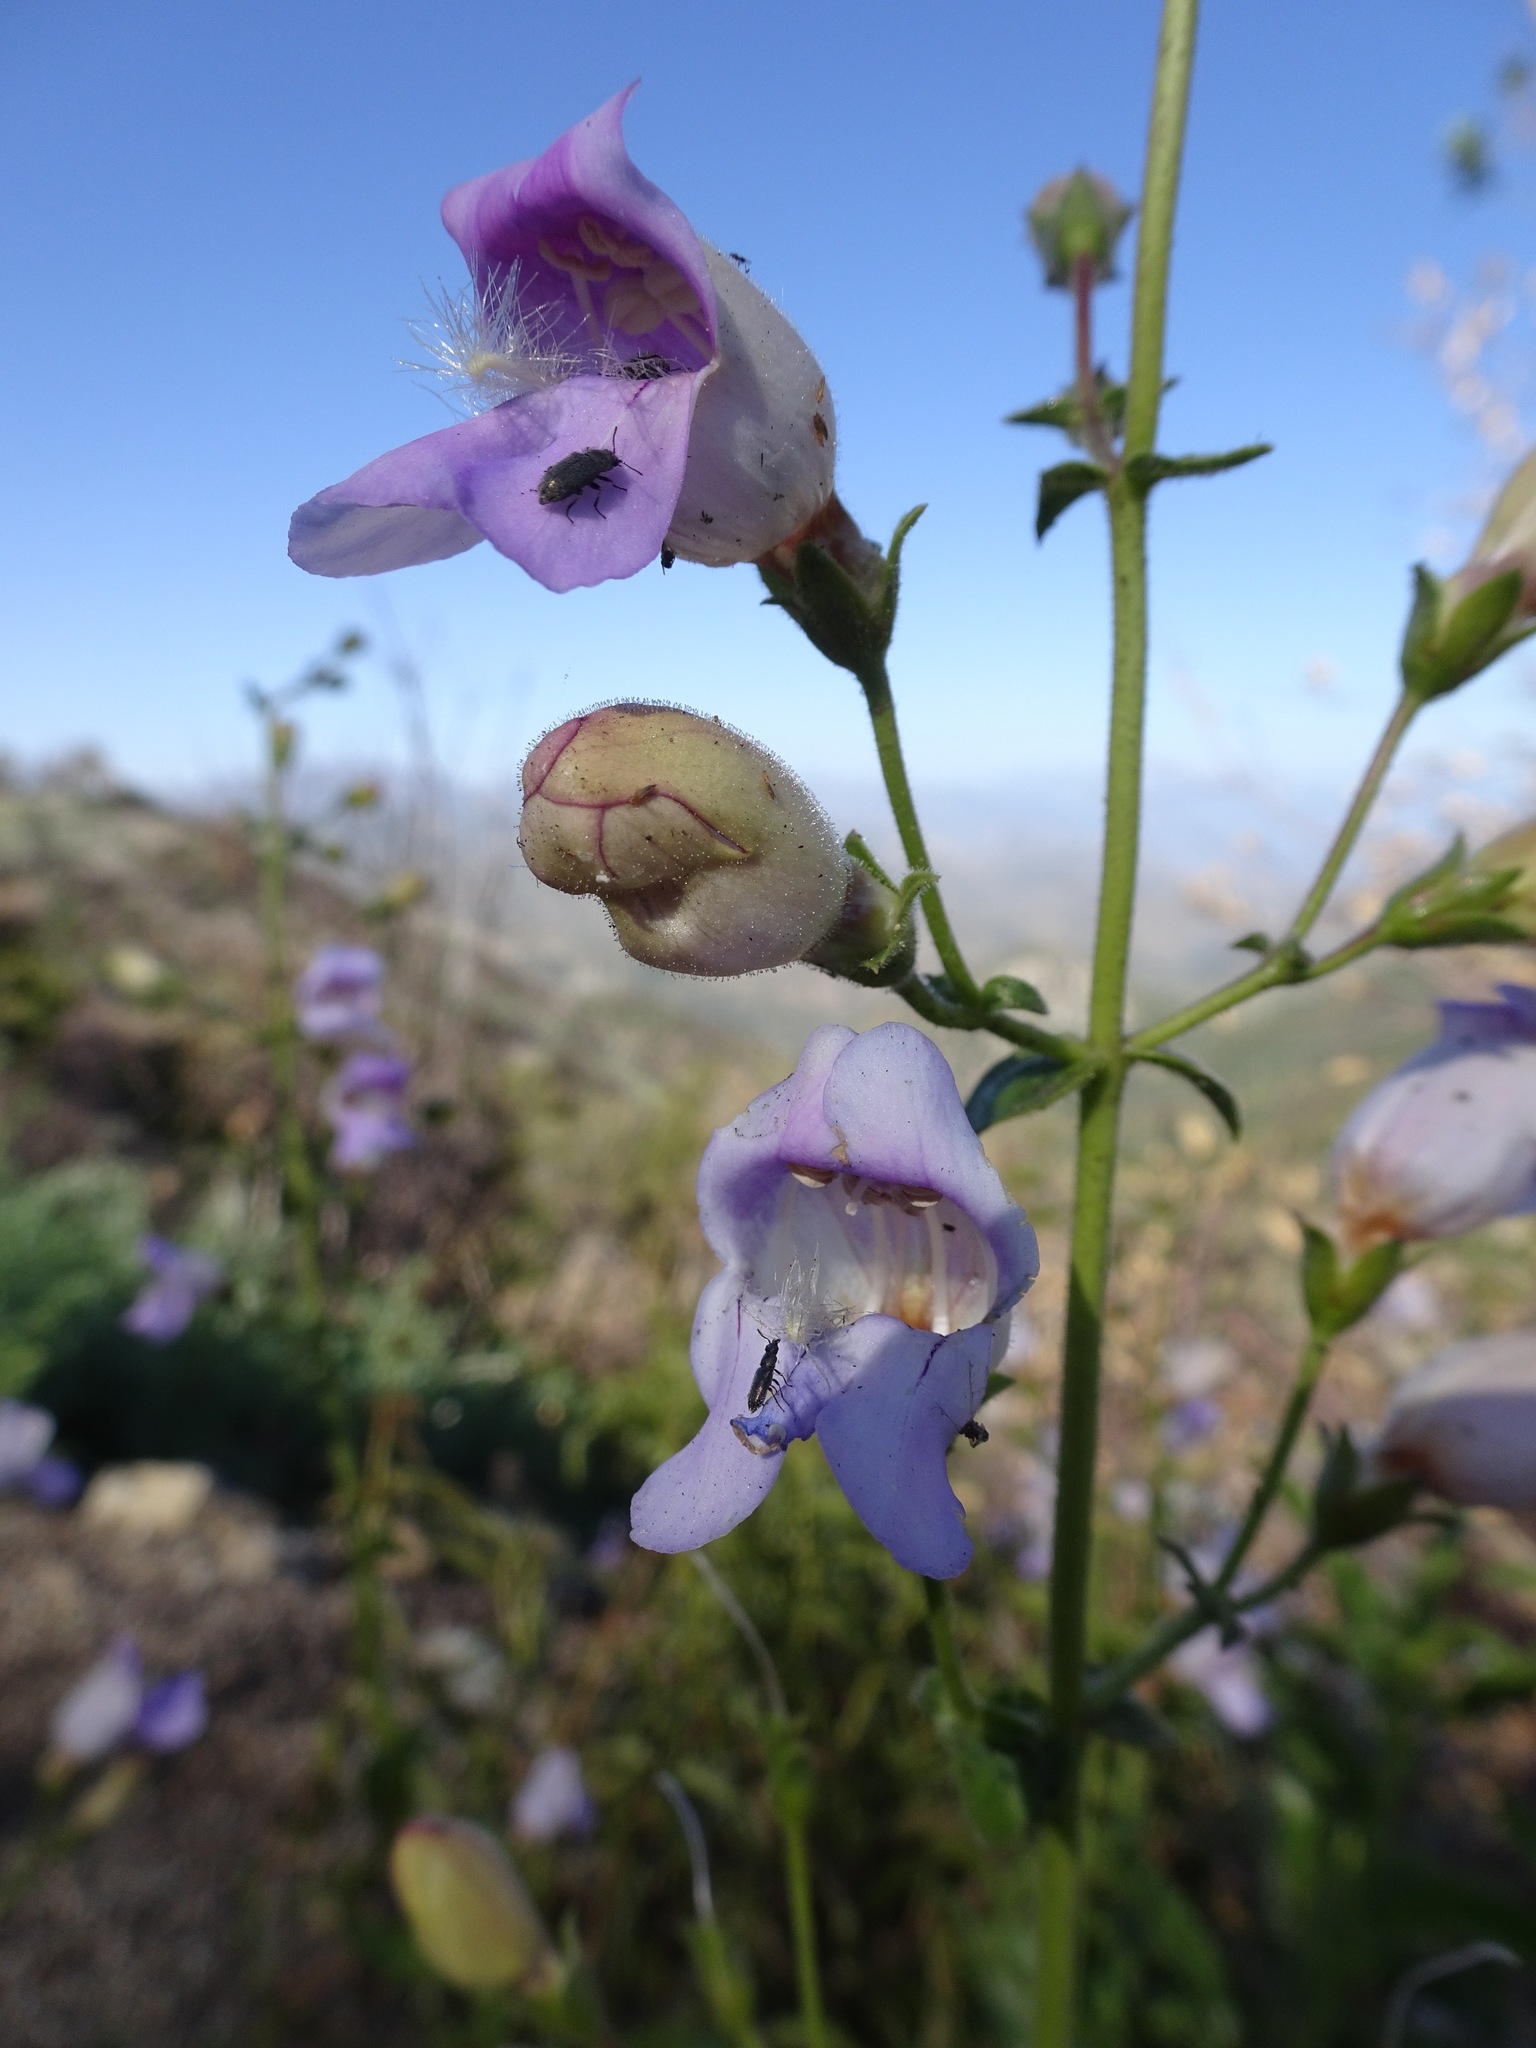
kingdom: Plantae
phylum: Tracheophyta
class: Magnoliopsida
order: Lamiales
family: Plantaginaceae
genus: Penstemon
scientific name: Penstemon grinnellii
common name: Grinnell's beardtongue
